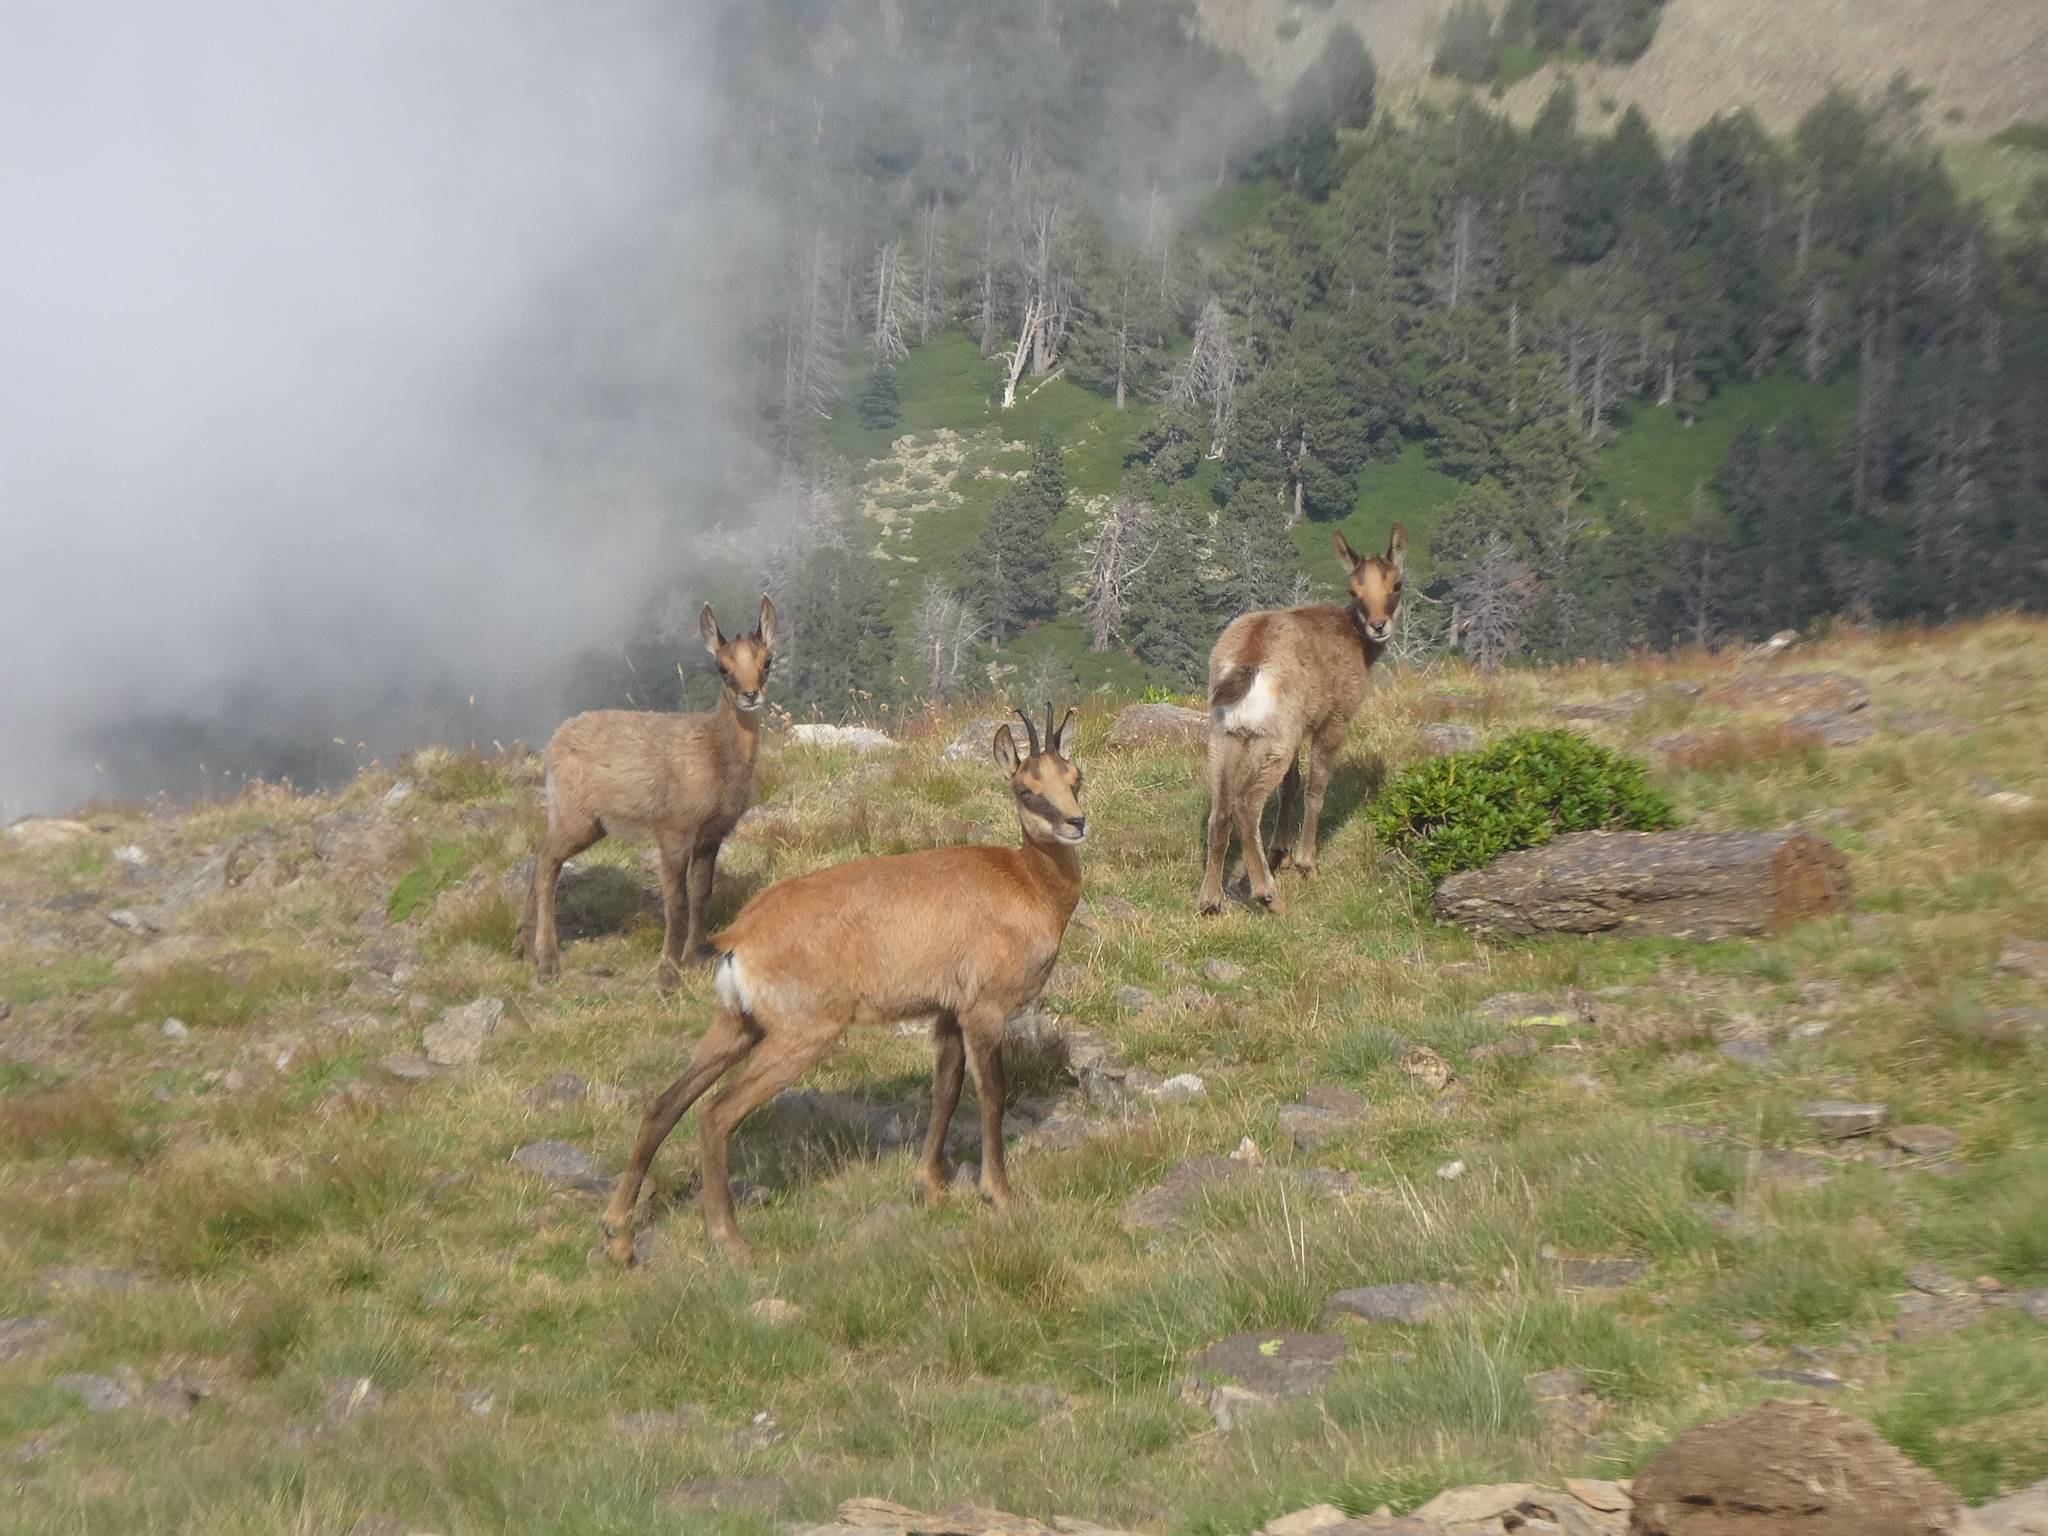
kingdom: Animalia
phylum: Chordata
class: Mammalia
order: Artiodactyla
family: Bovidae
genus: Rupicapra
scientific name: Rupicapra pyrenaica
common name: Pyrenean chamois
